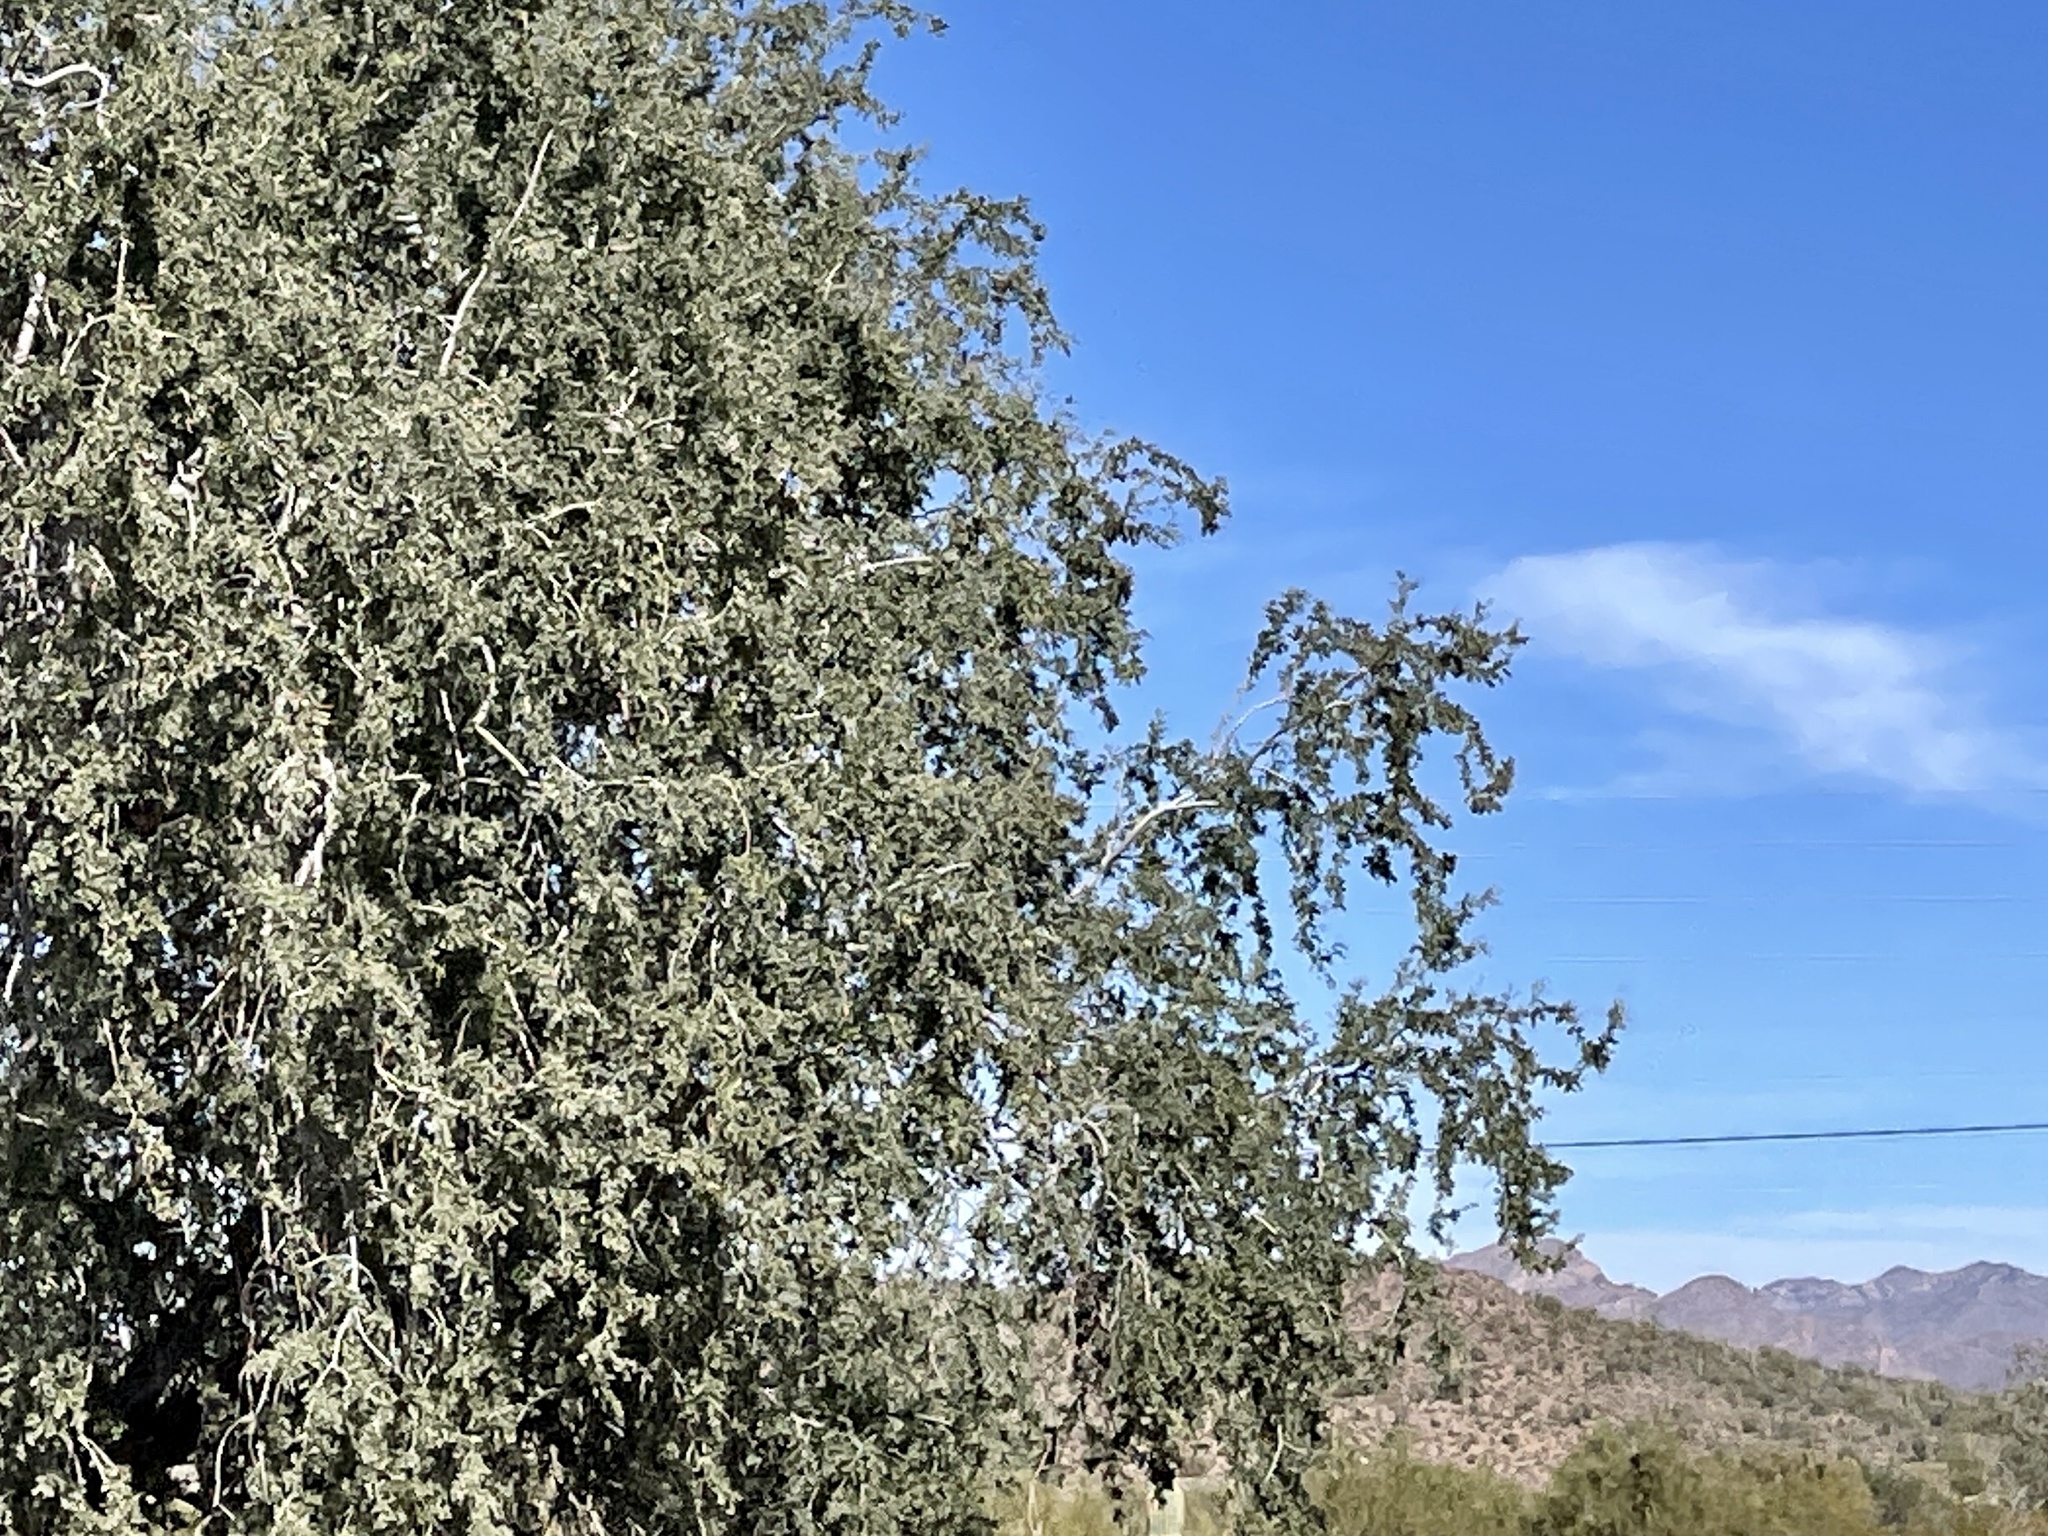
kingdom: Plantae
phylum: Tracheophyta
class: Magnoliopsida
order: Fabales
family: Fabaceae
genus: Olneya
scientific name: Olneya tesota
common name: Desert ironwood
